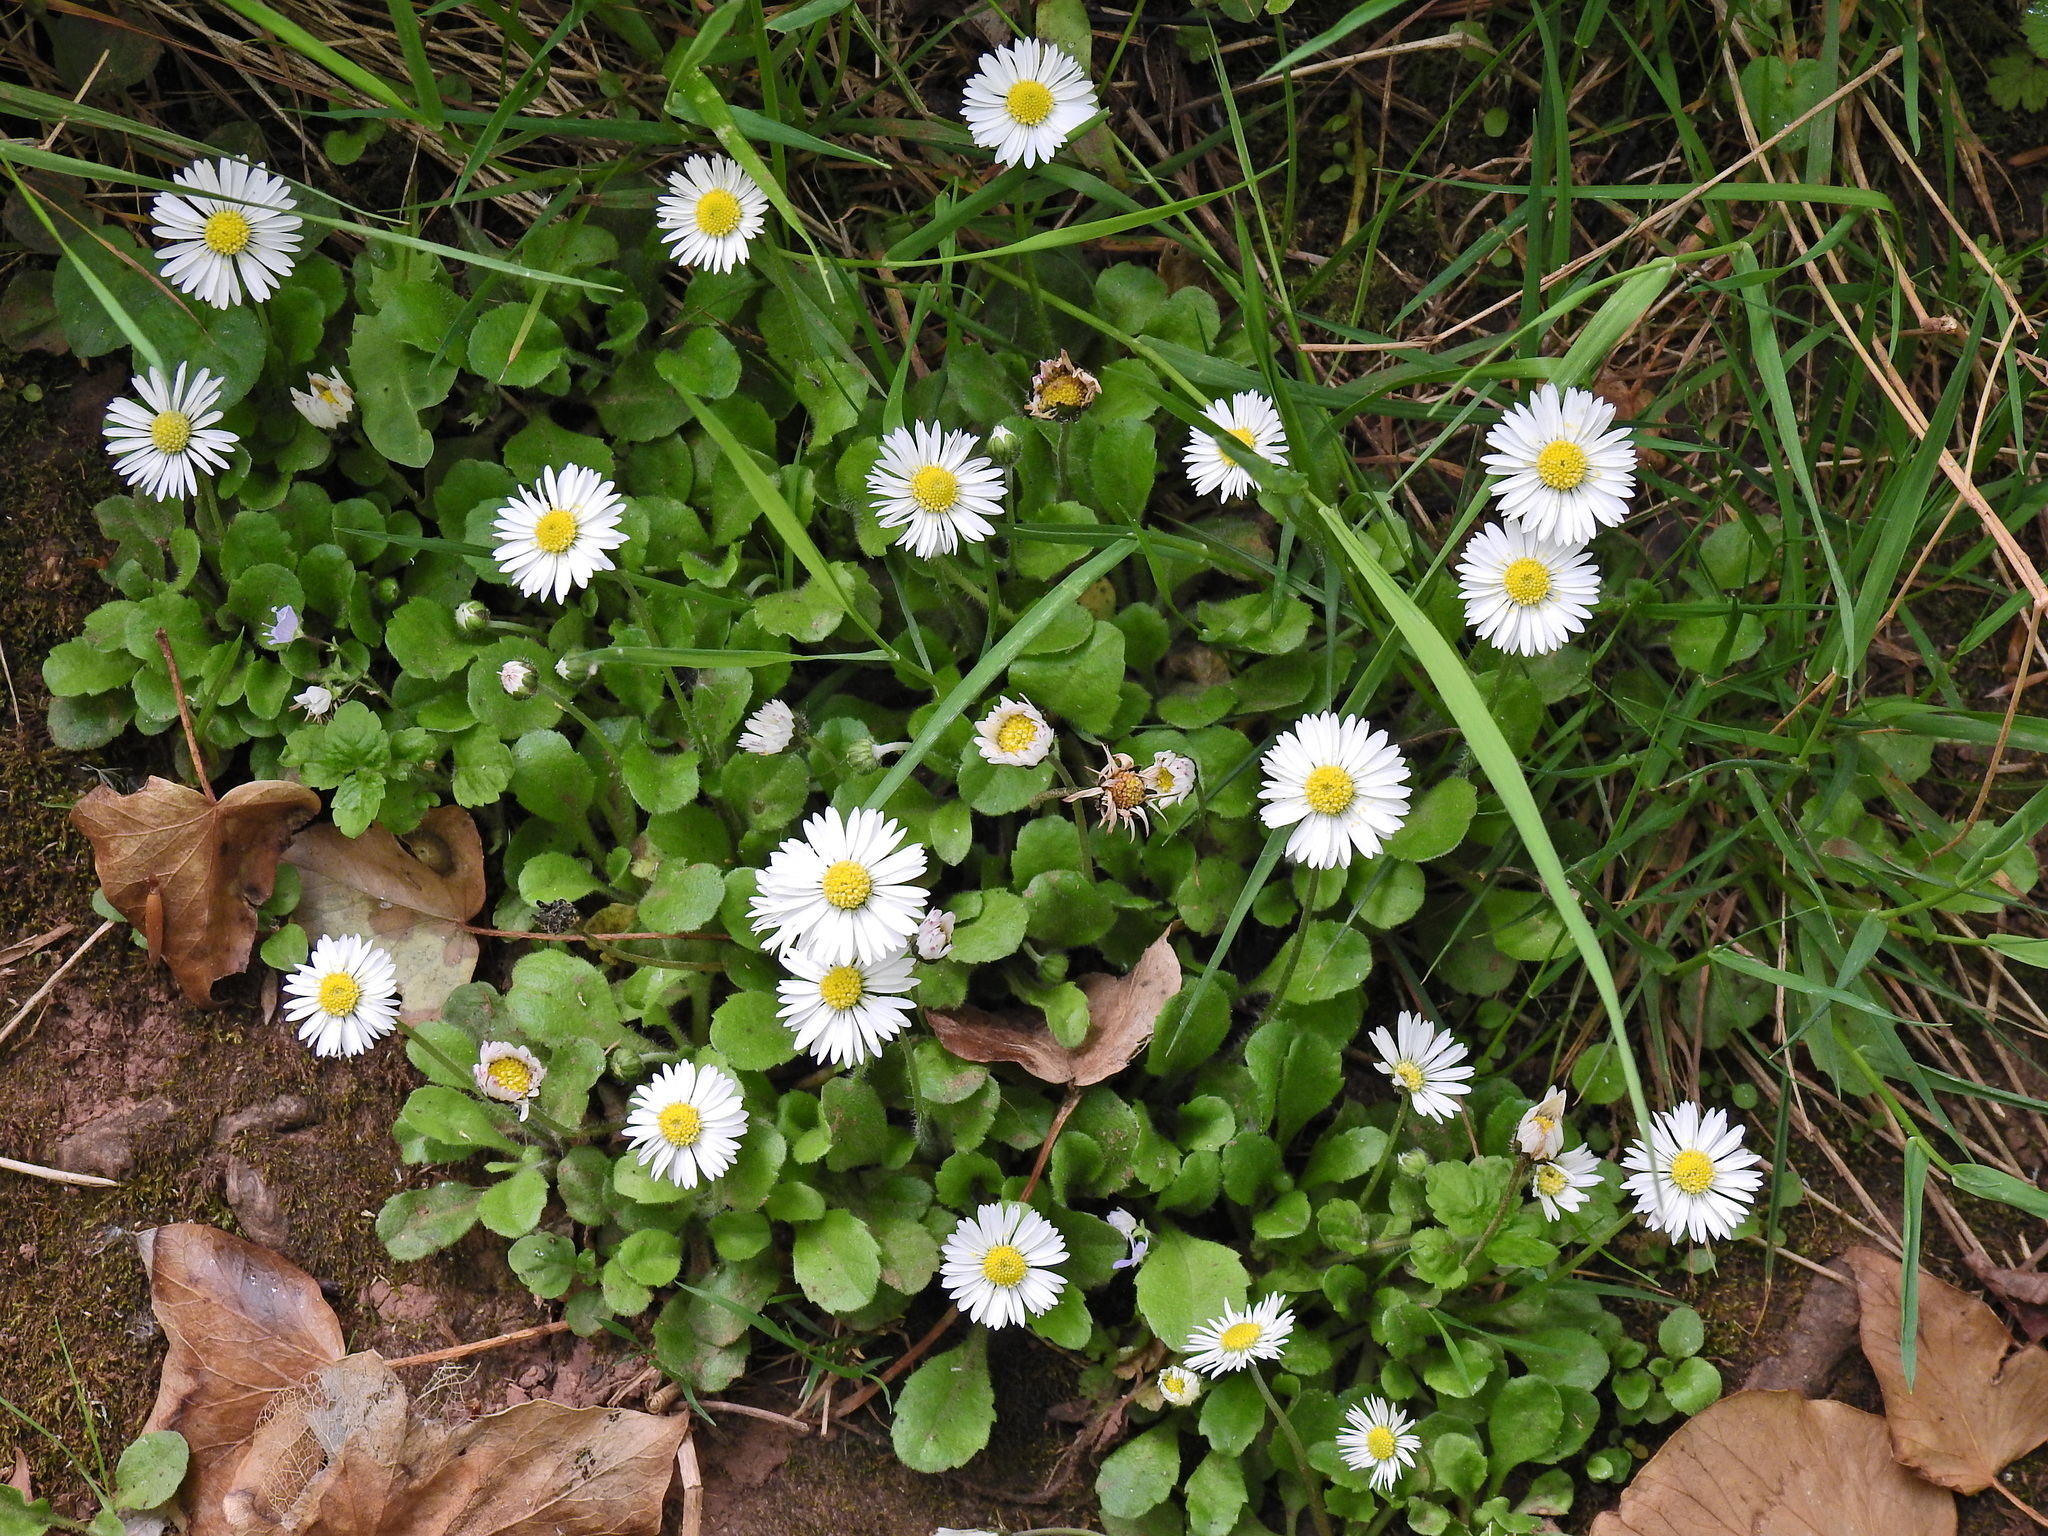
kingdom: Plantae
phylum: Tracheophyta
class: Magnoliopsida
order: Asterales
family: Asteraceae
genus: Bellis
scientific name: Bellis perennis
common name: Lawndaisy
